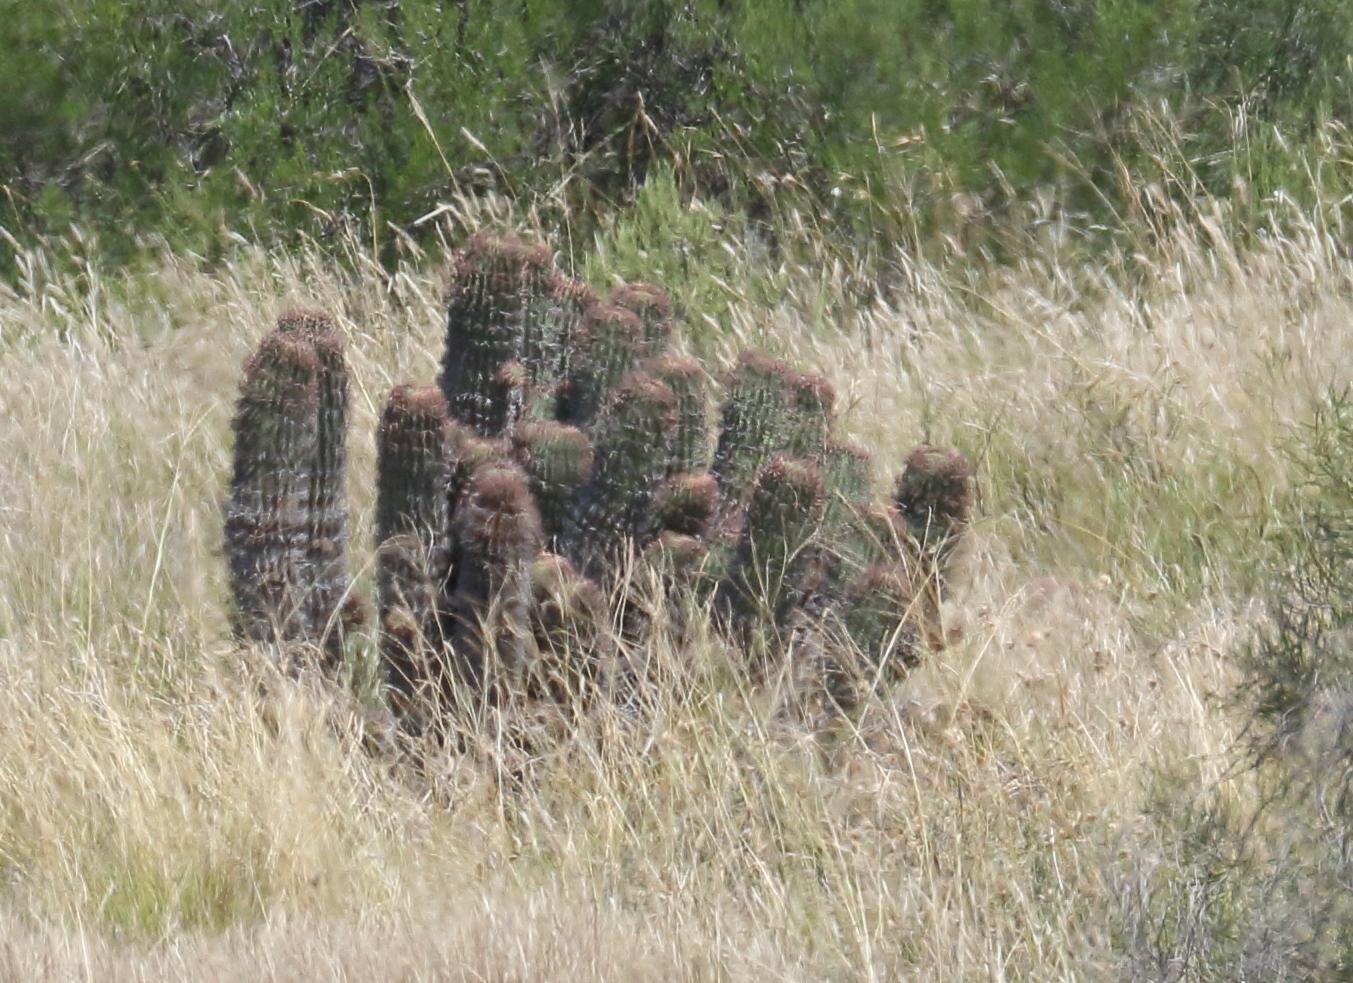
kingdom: Plantae
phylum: Tracheophyta
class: Magnoliopsida
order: Malpighiales
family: Euphorbiaceae
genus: Euphorbia
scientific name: Euphorbia stellispina
